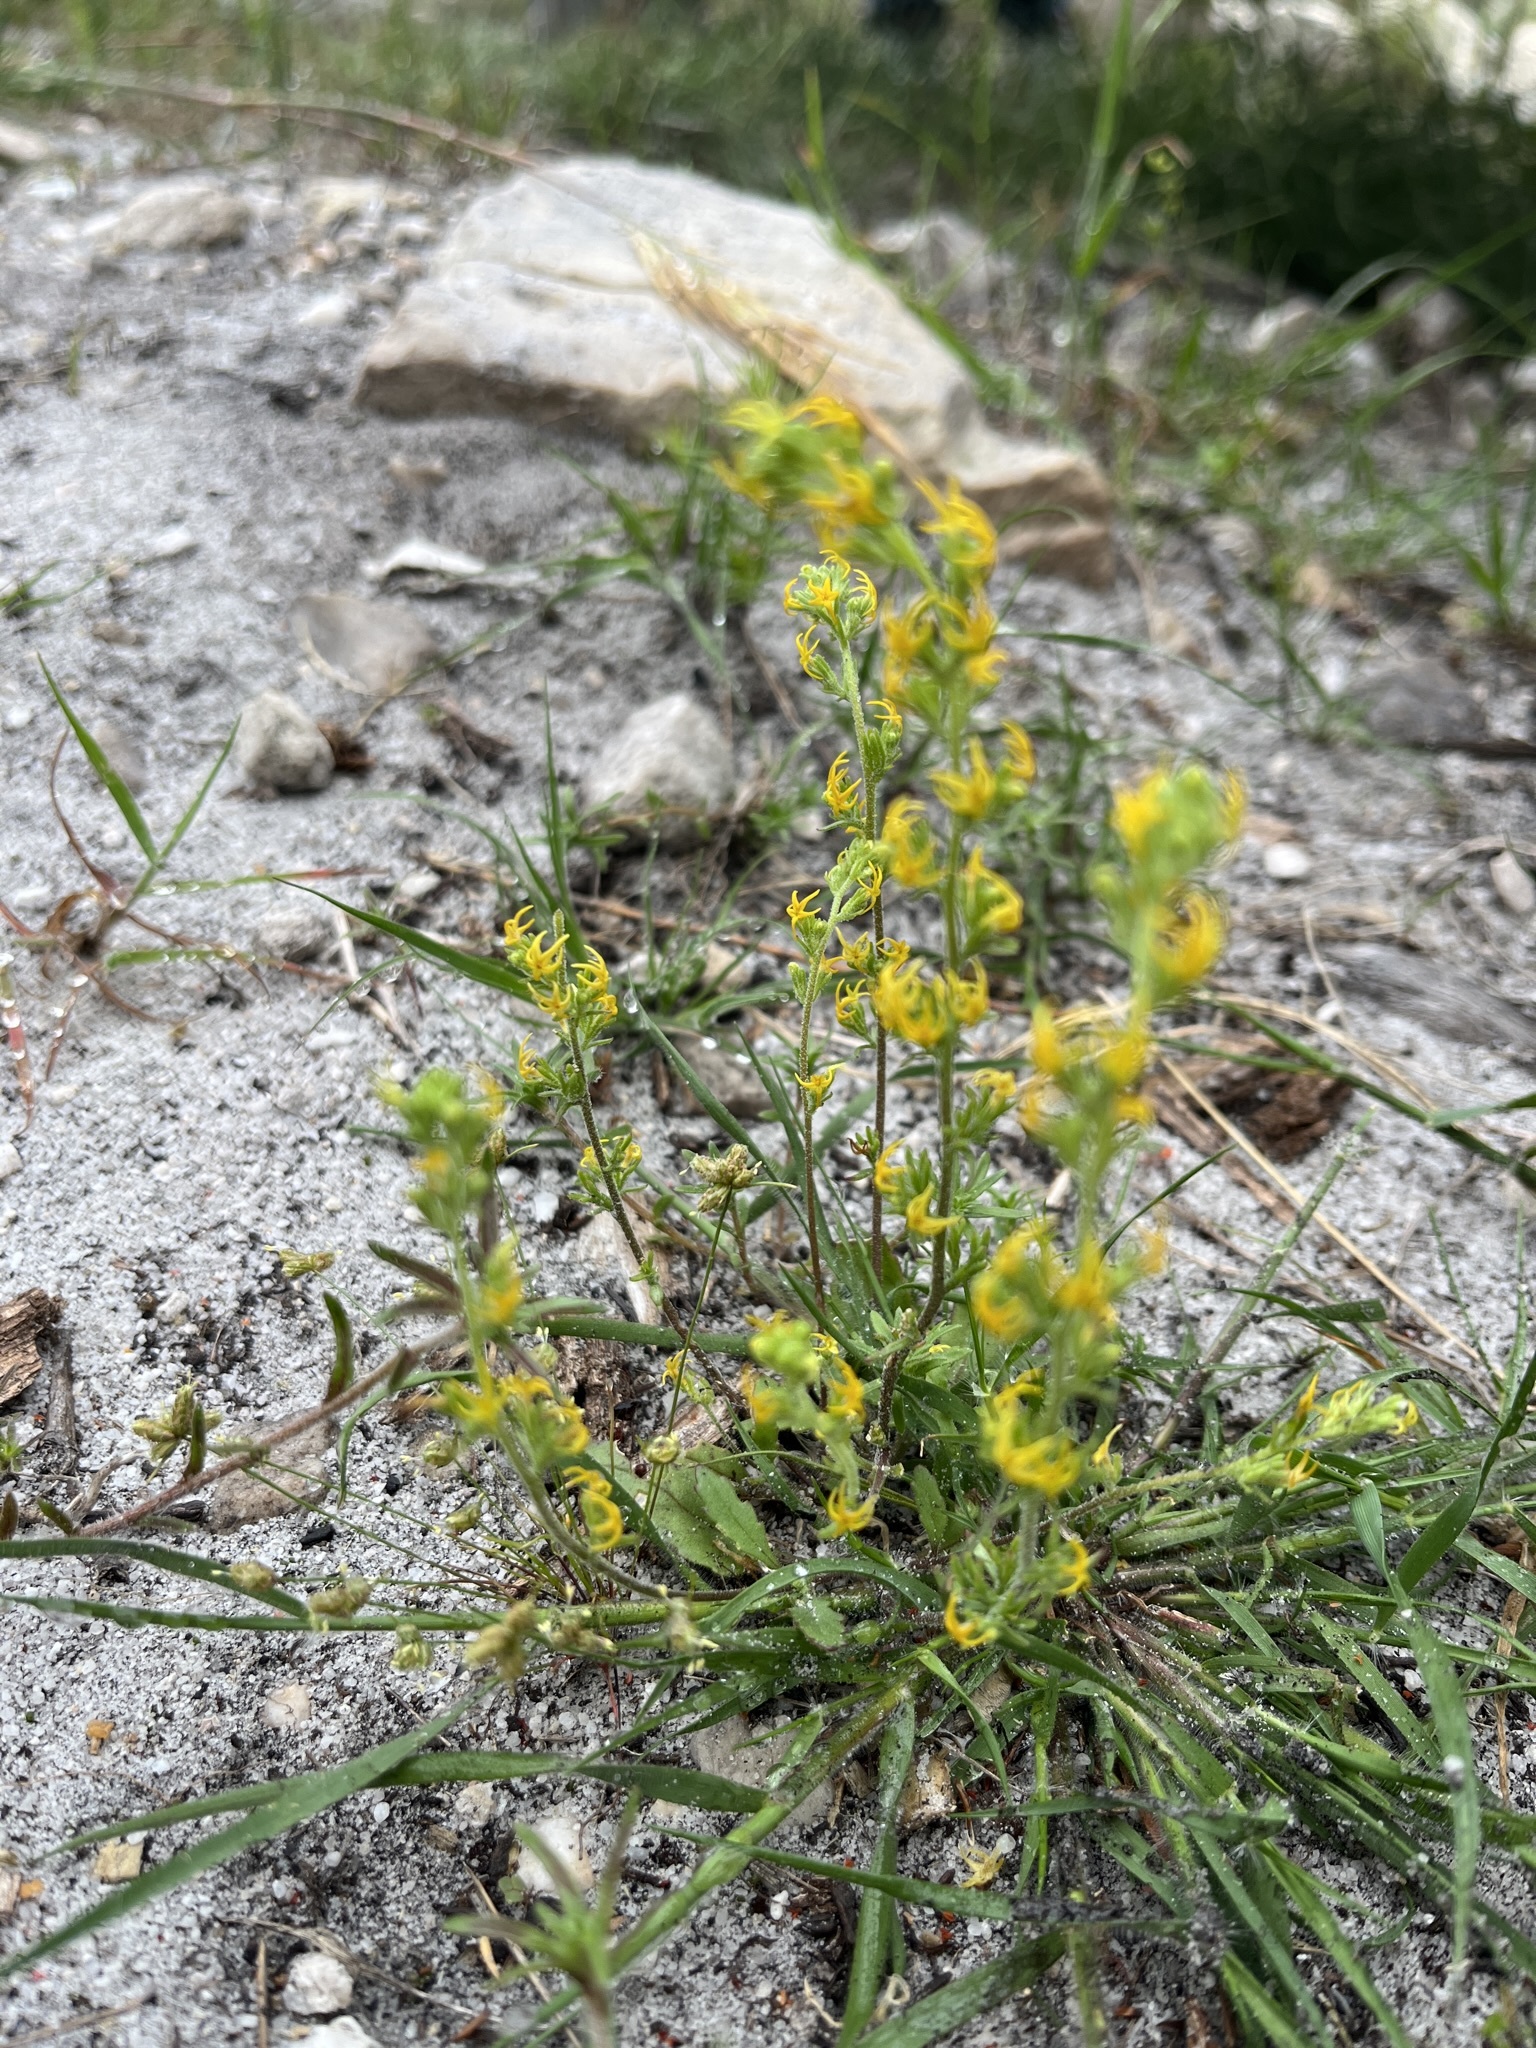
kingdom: Plantae
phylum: Tracheophyta
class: Magnoliopsida
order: Lamiales
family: Scrophulariaceae
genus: Manulea
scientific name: Manulea cheiranthus
